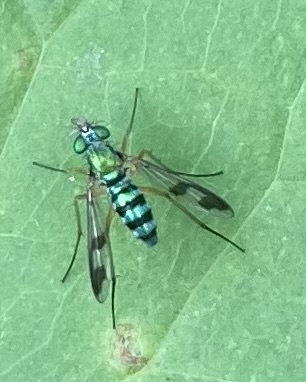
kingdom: Animalia
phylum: Arthropoda
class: Insecta
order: Diptera
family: Dolichopodidae
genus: Austrosciapus
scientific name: Austrosciapus proximus
